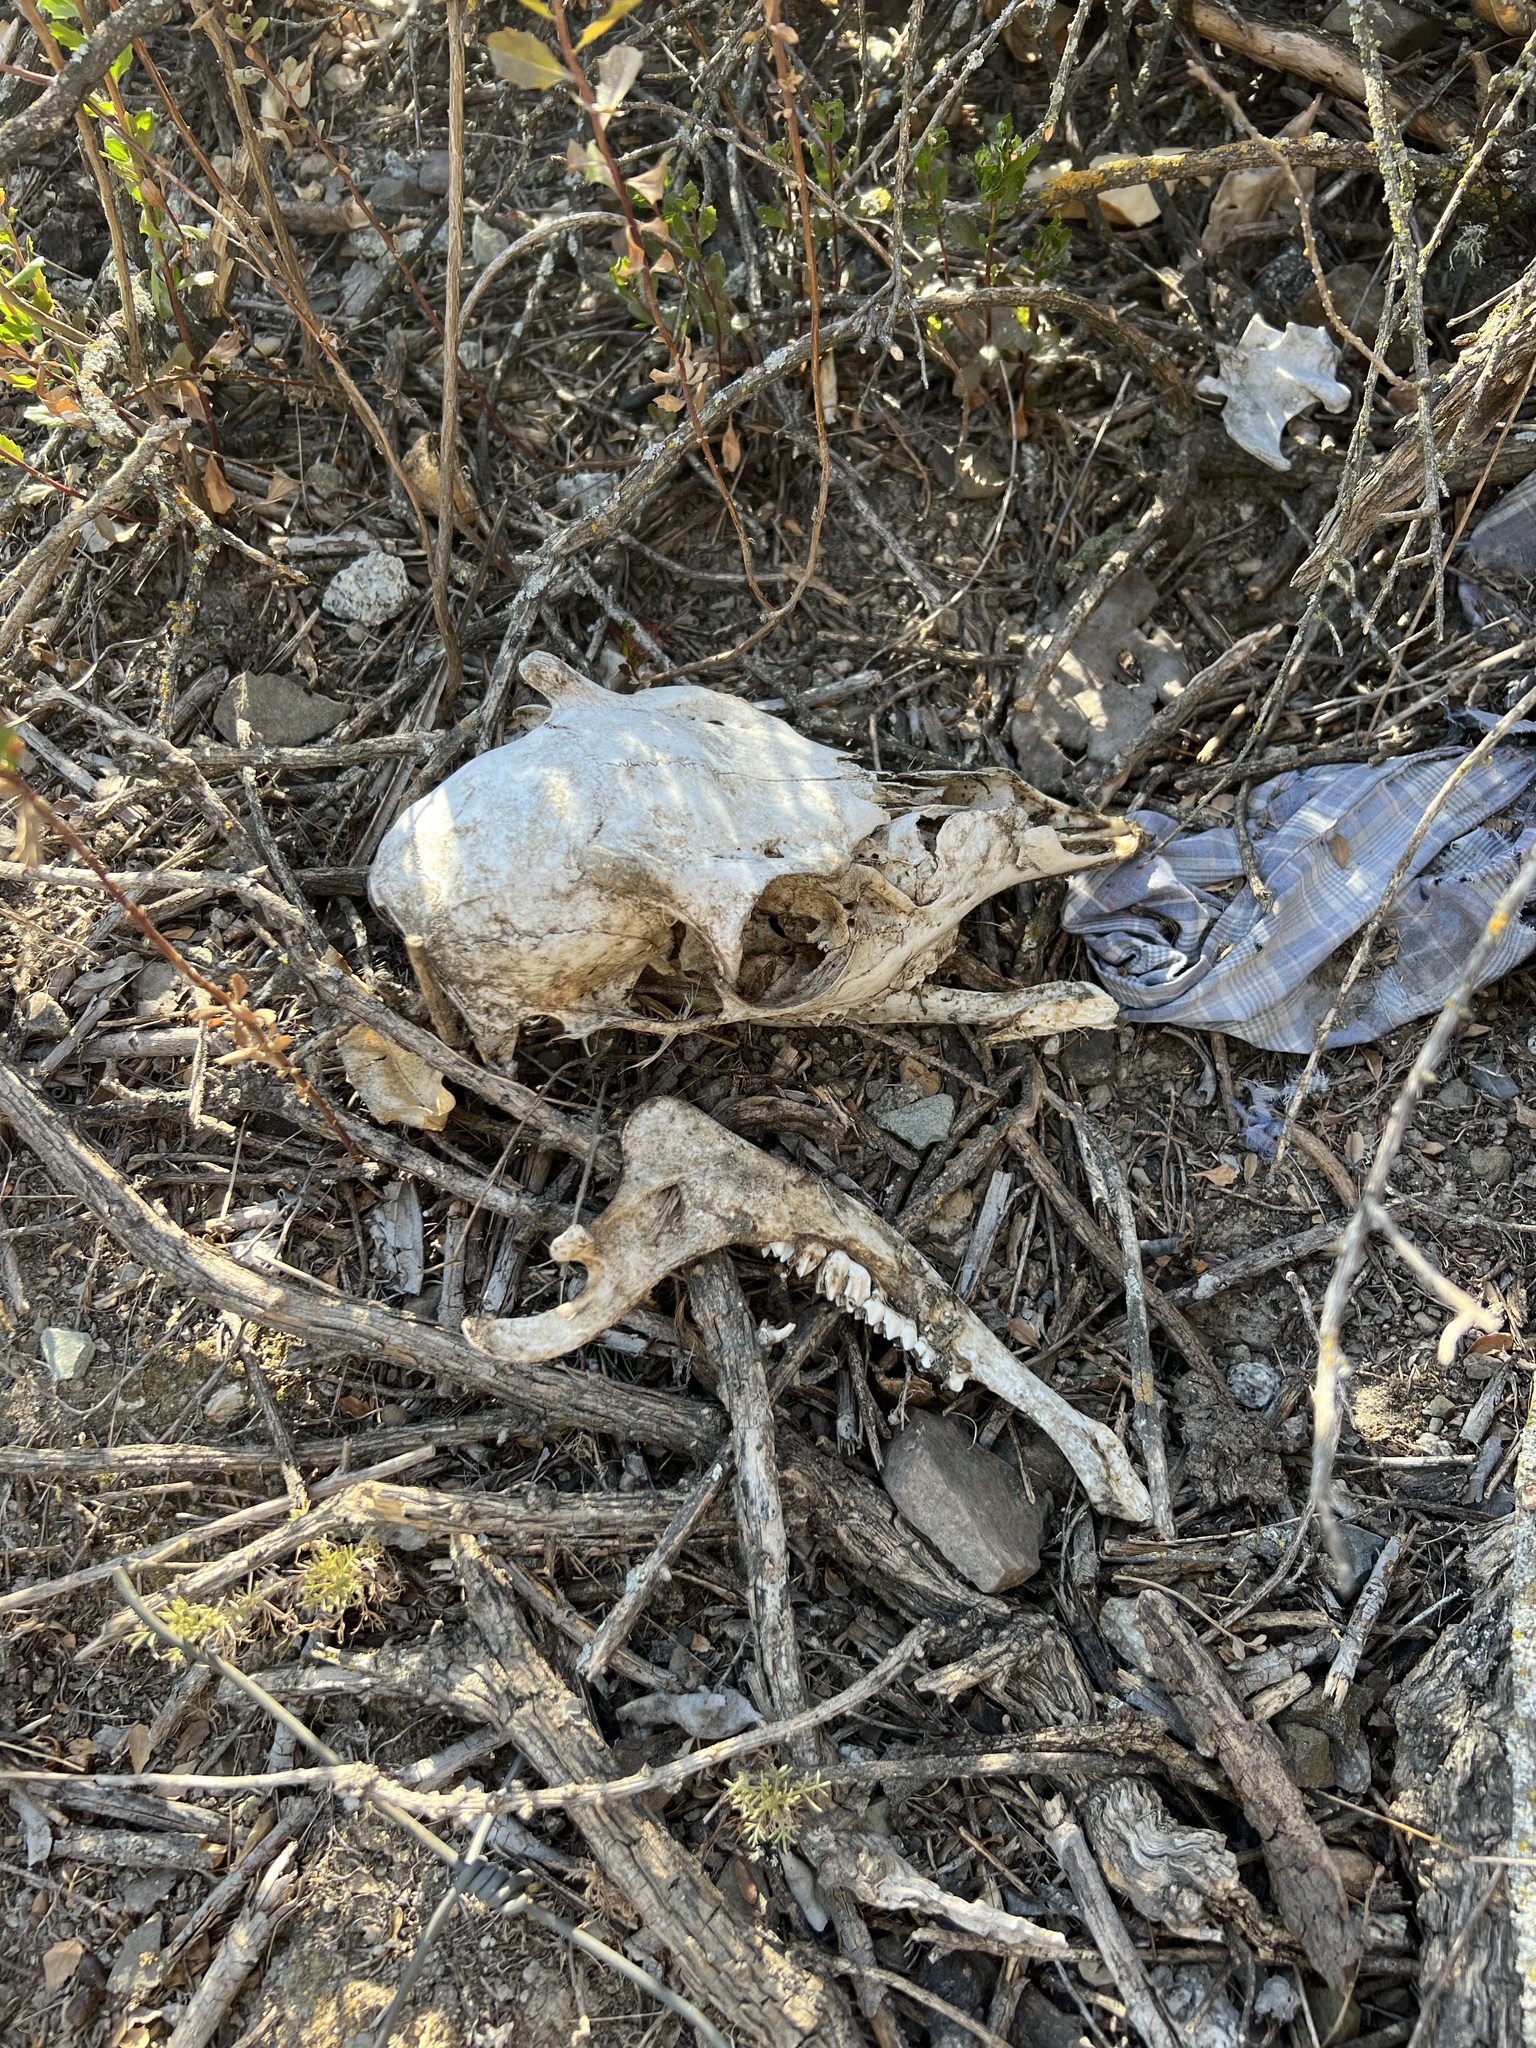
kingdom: Animalia
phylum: Chordata
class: Mammalia
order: Artiodactyla
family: Cervidae
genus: Odocoileus
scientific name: Odocoileus hemionus
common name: Mule deer
